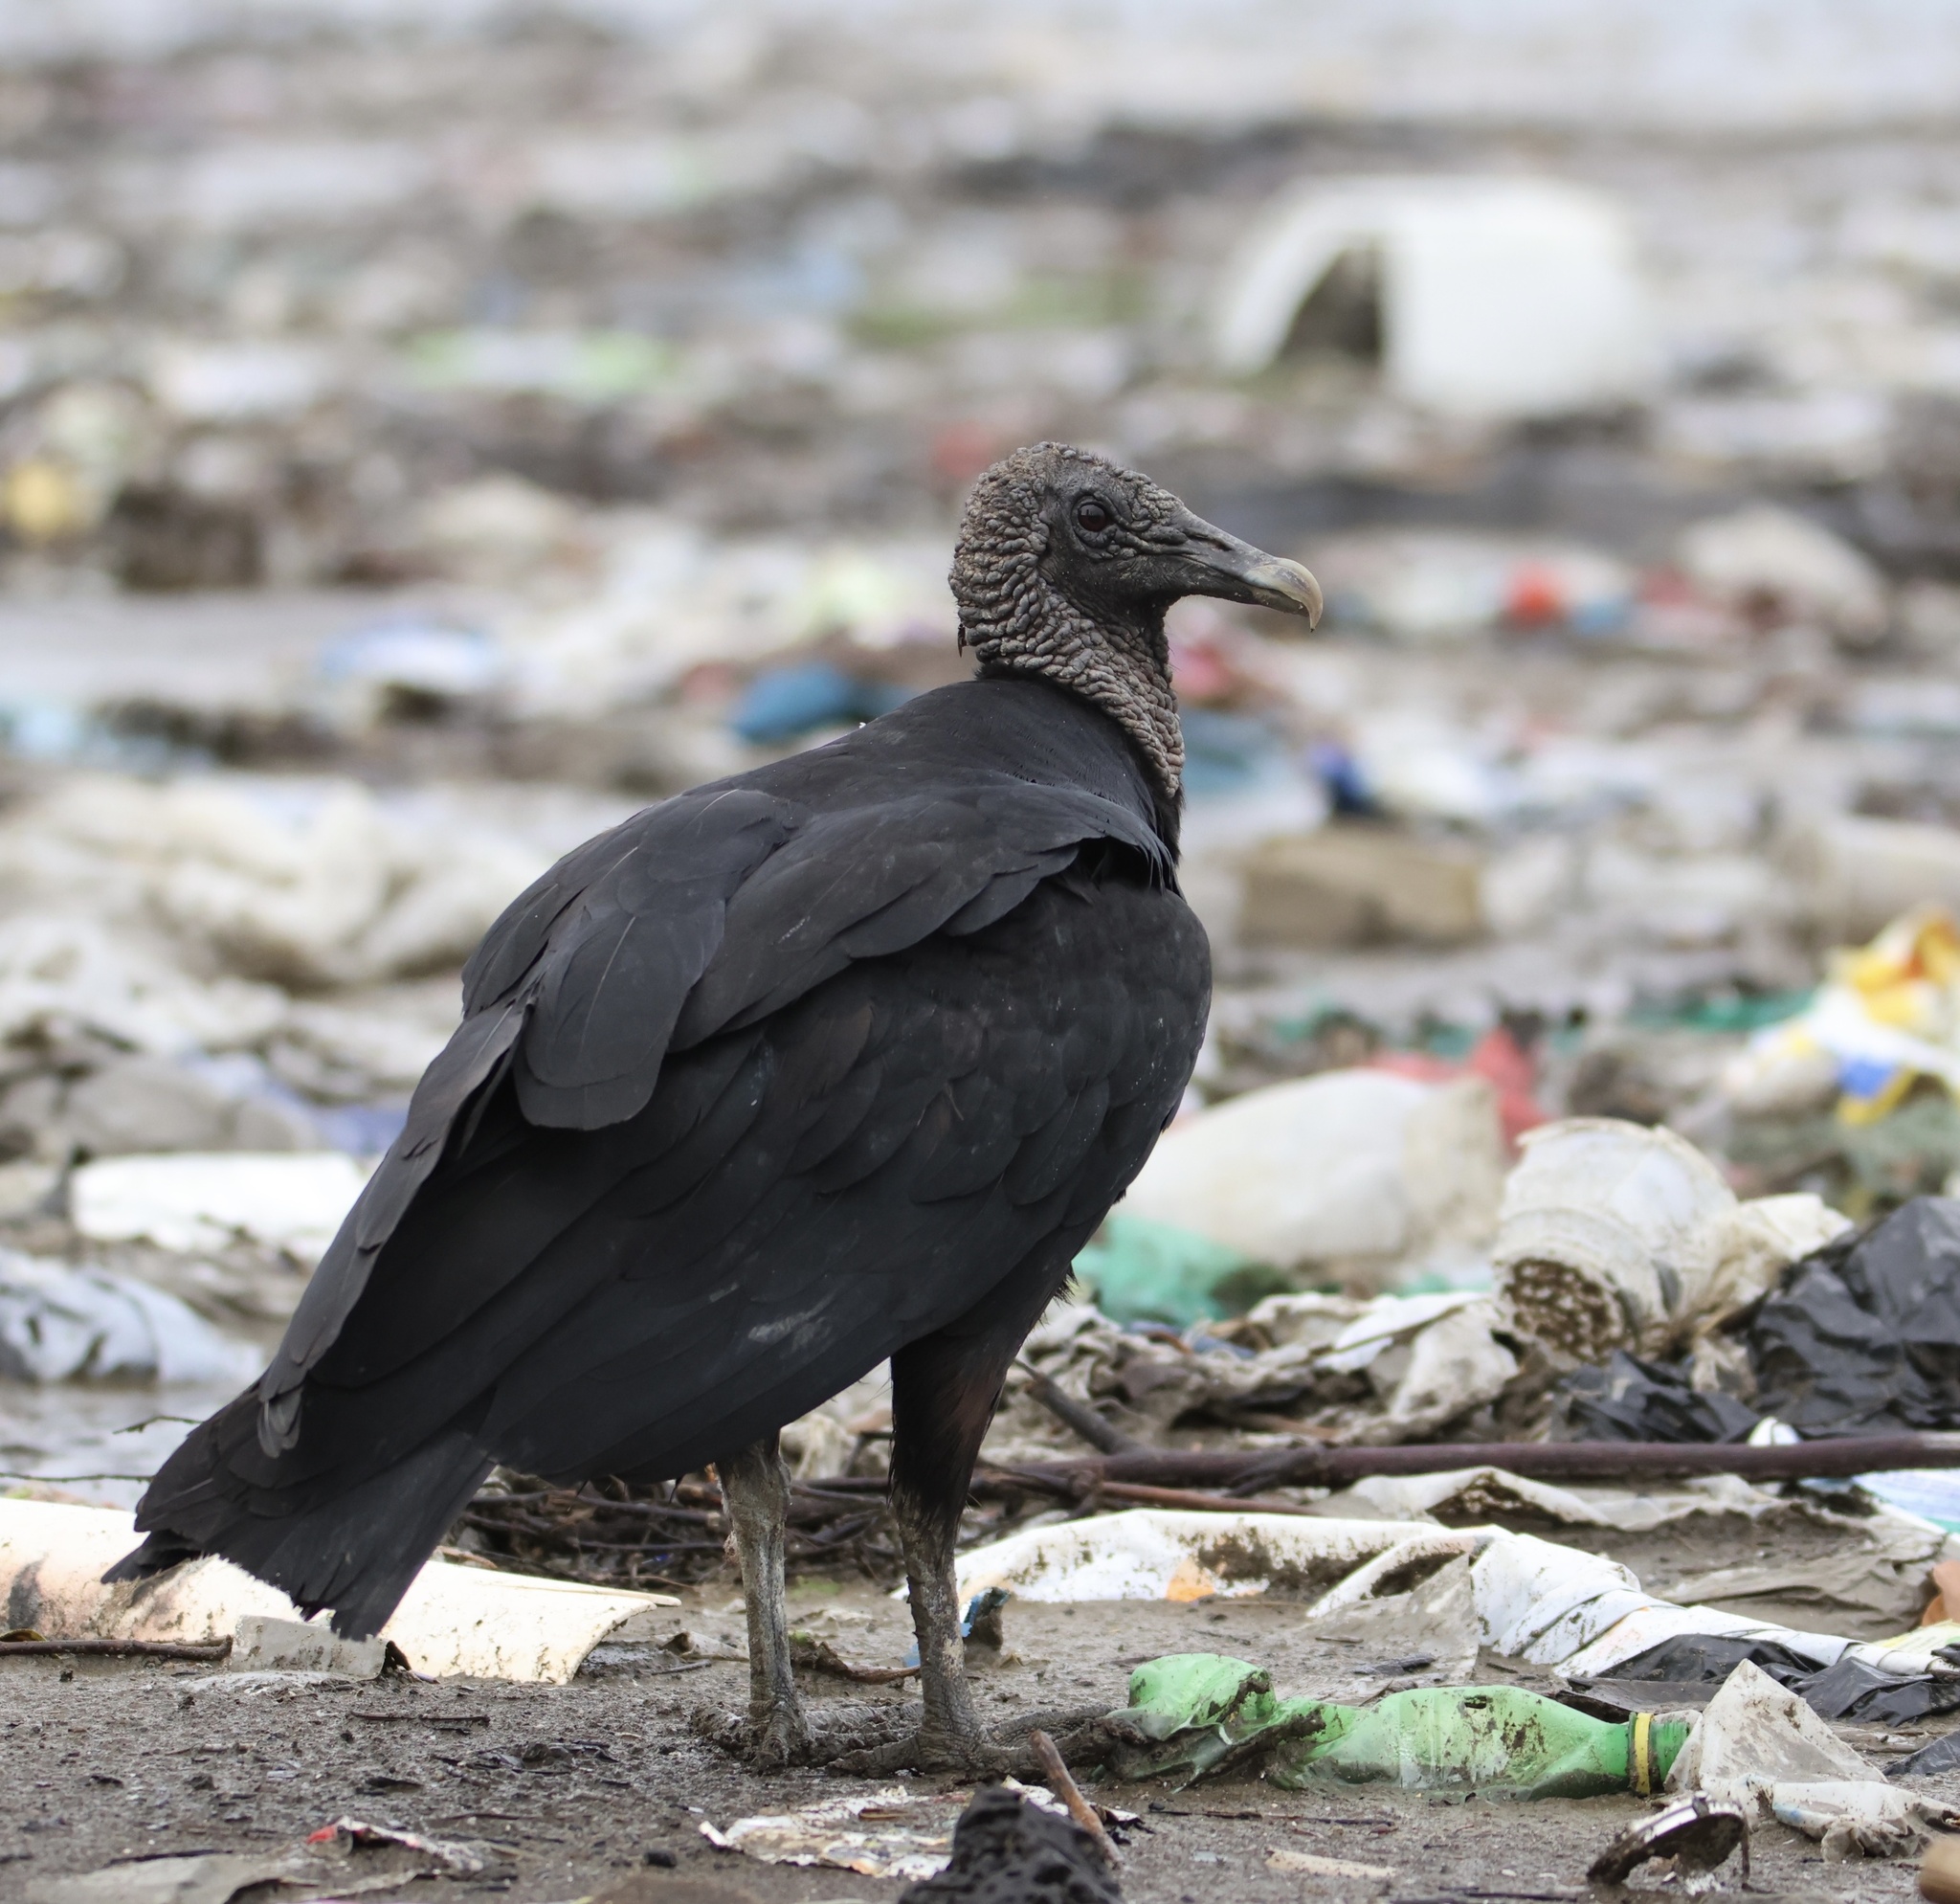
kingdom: Animalia
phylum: Chordata
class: Aves
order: Accipitriformes
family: Cathartidae
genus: Coragyps
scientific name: Coragyps atratus
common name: Black vulture
